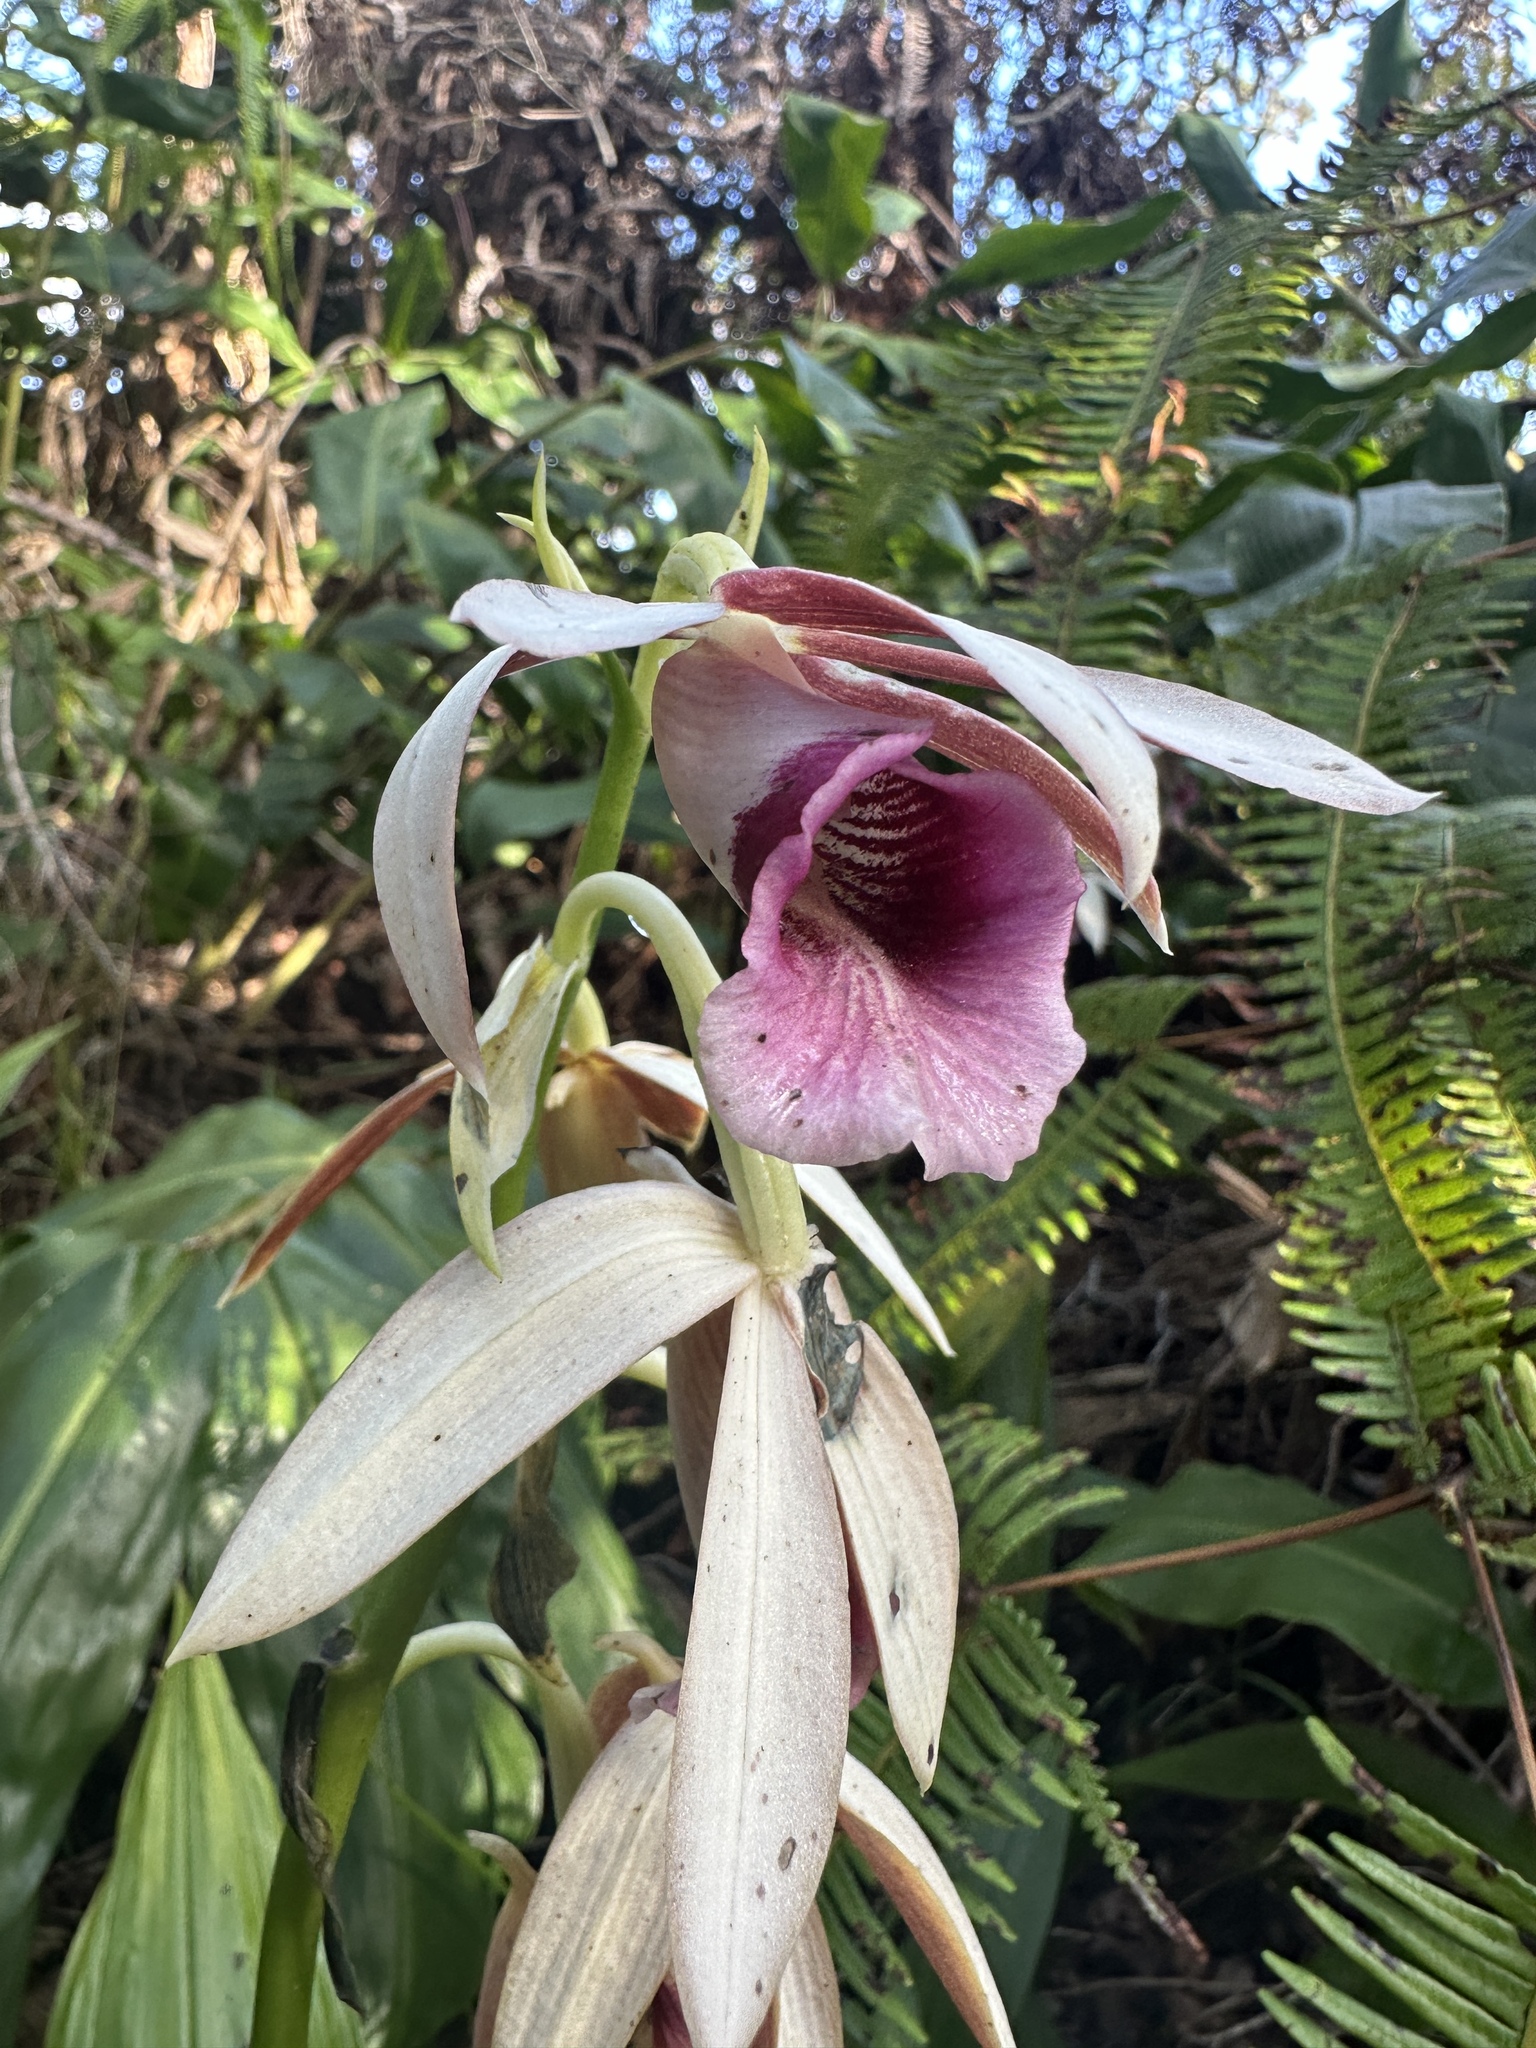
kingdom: Plantae
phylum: Tracheophyta
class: Liliopsida
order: Asparagales
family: Orchidaceae
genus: Calanthe
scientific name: Calanthe tankervilleae
